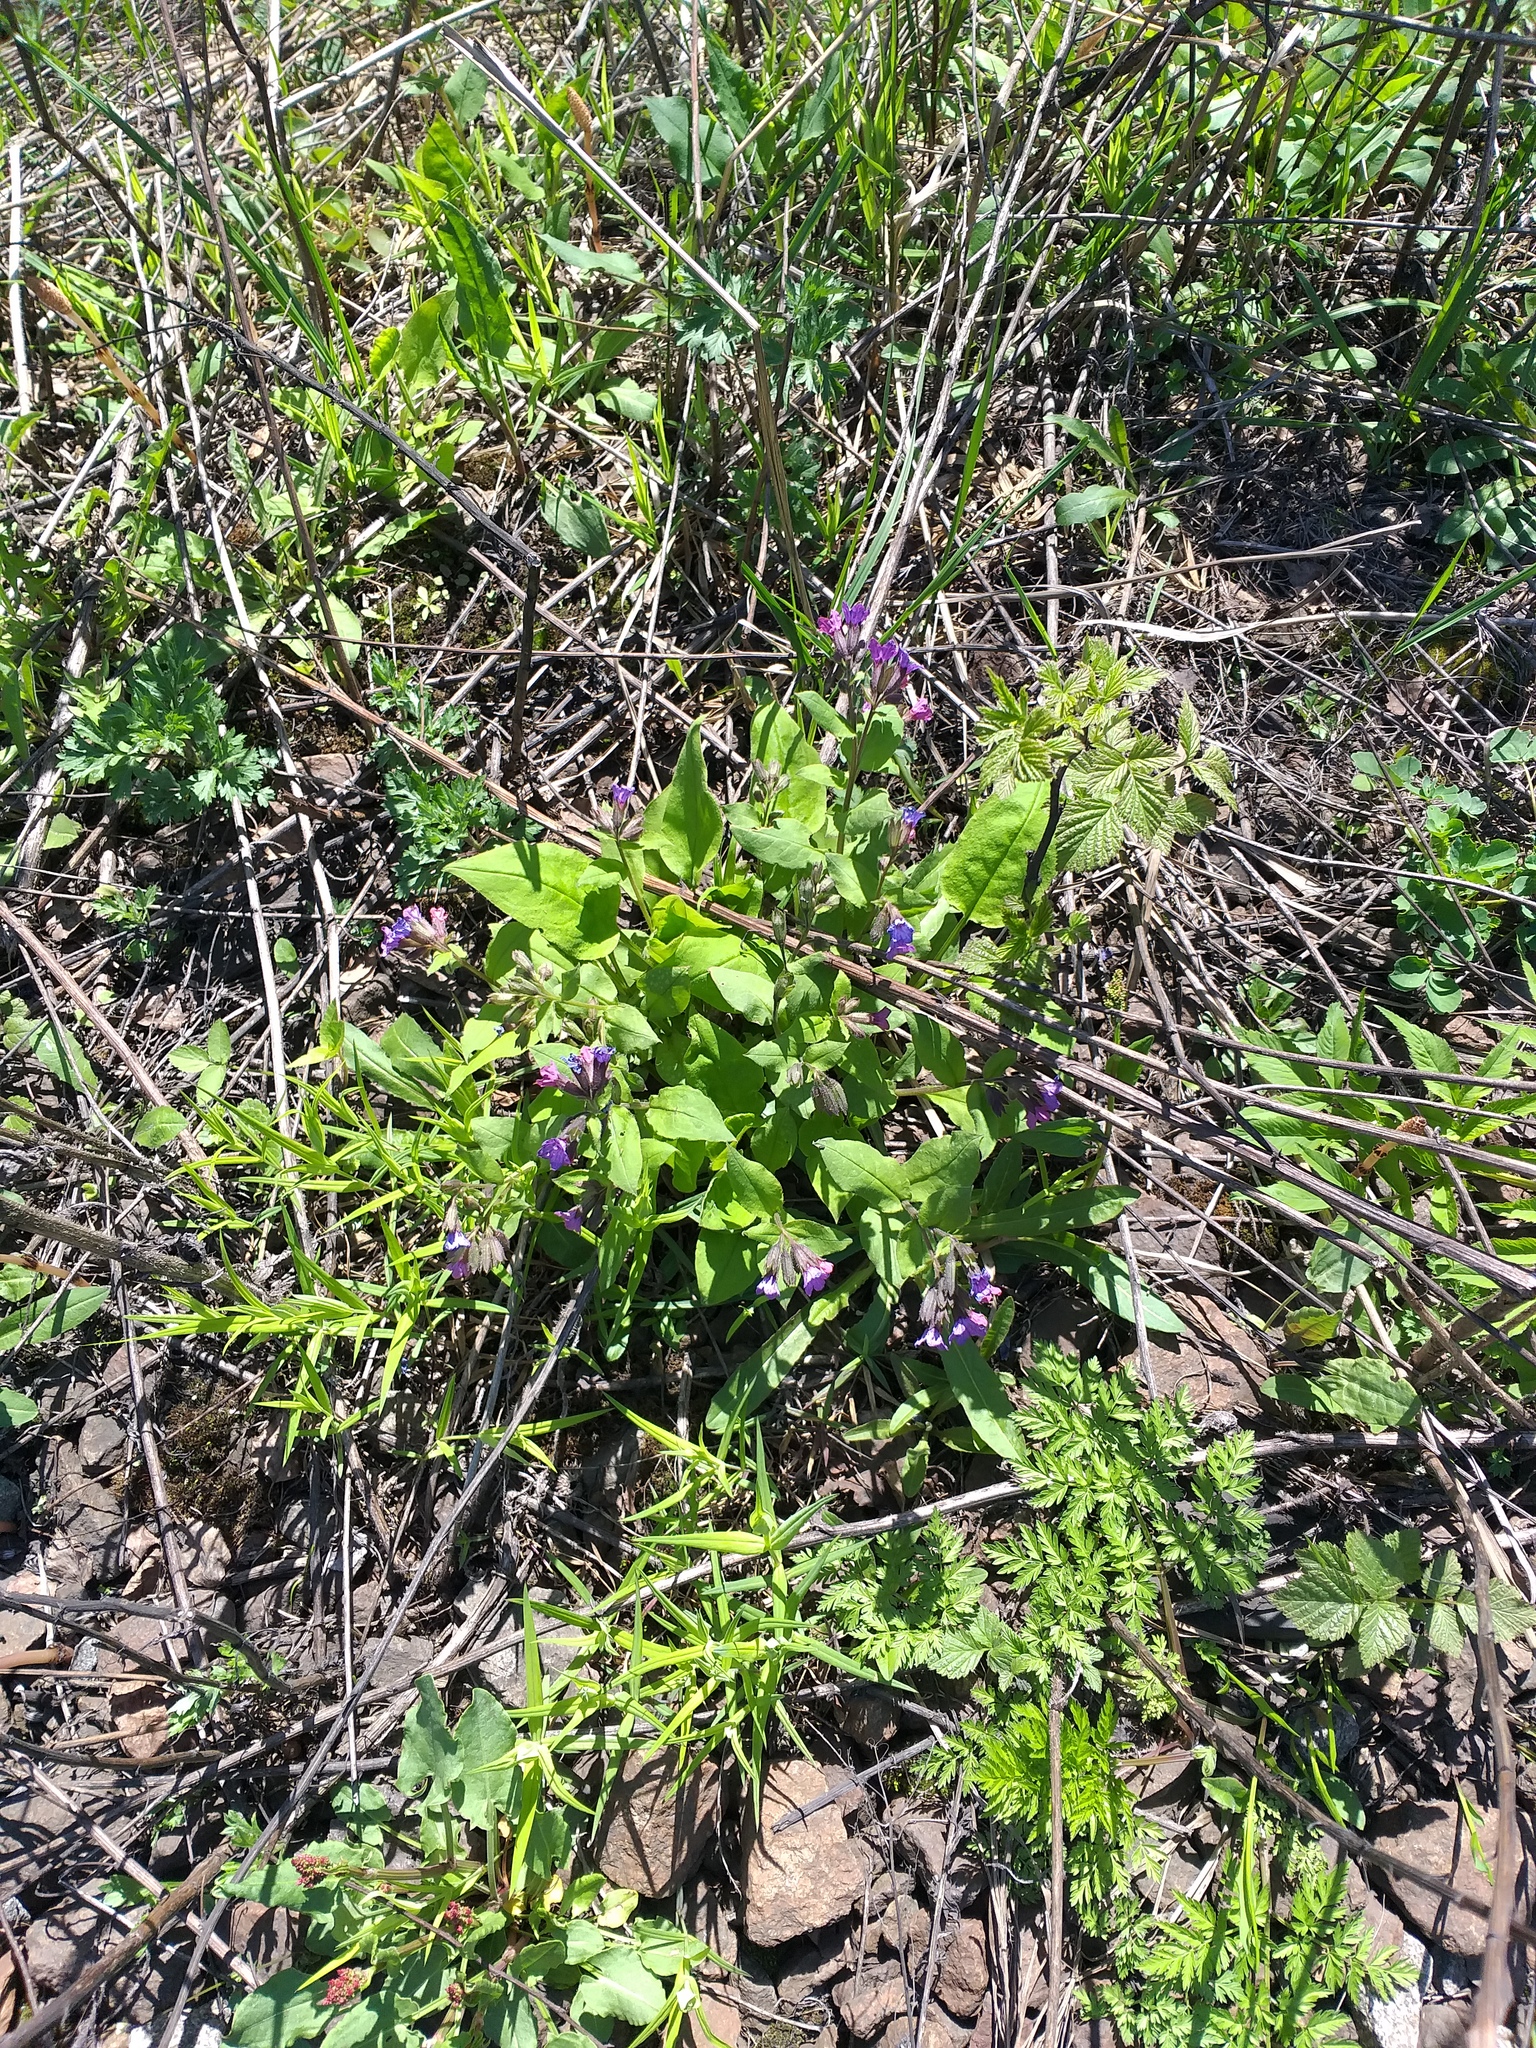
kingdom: Plantae
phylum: Tracheophyta
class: Magnoliopsida
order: Boraginales
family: Boraginaceae
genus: Pulmonaria
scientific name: Pulmonaria obscura
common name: Suffolk lungwort
